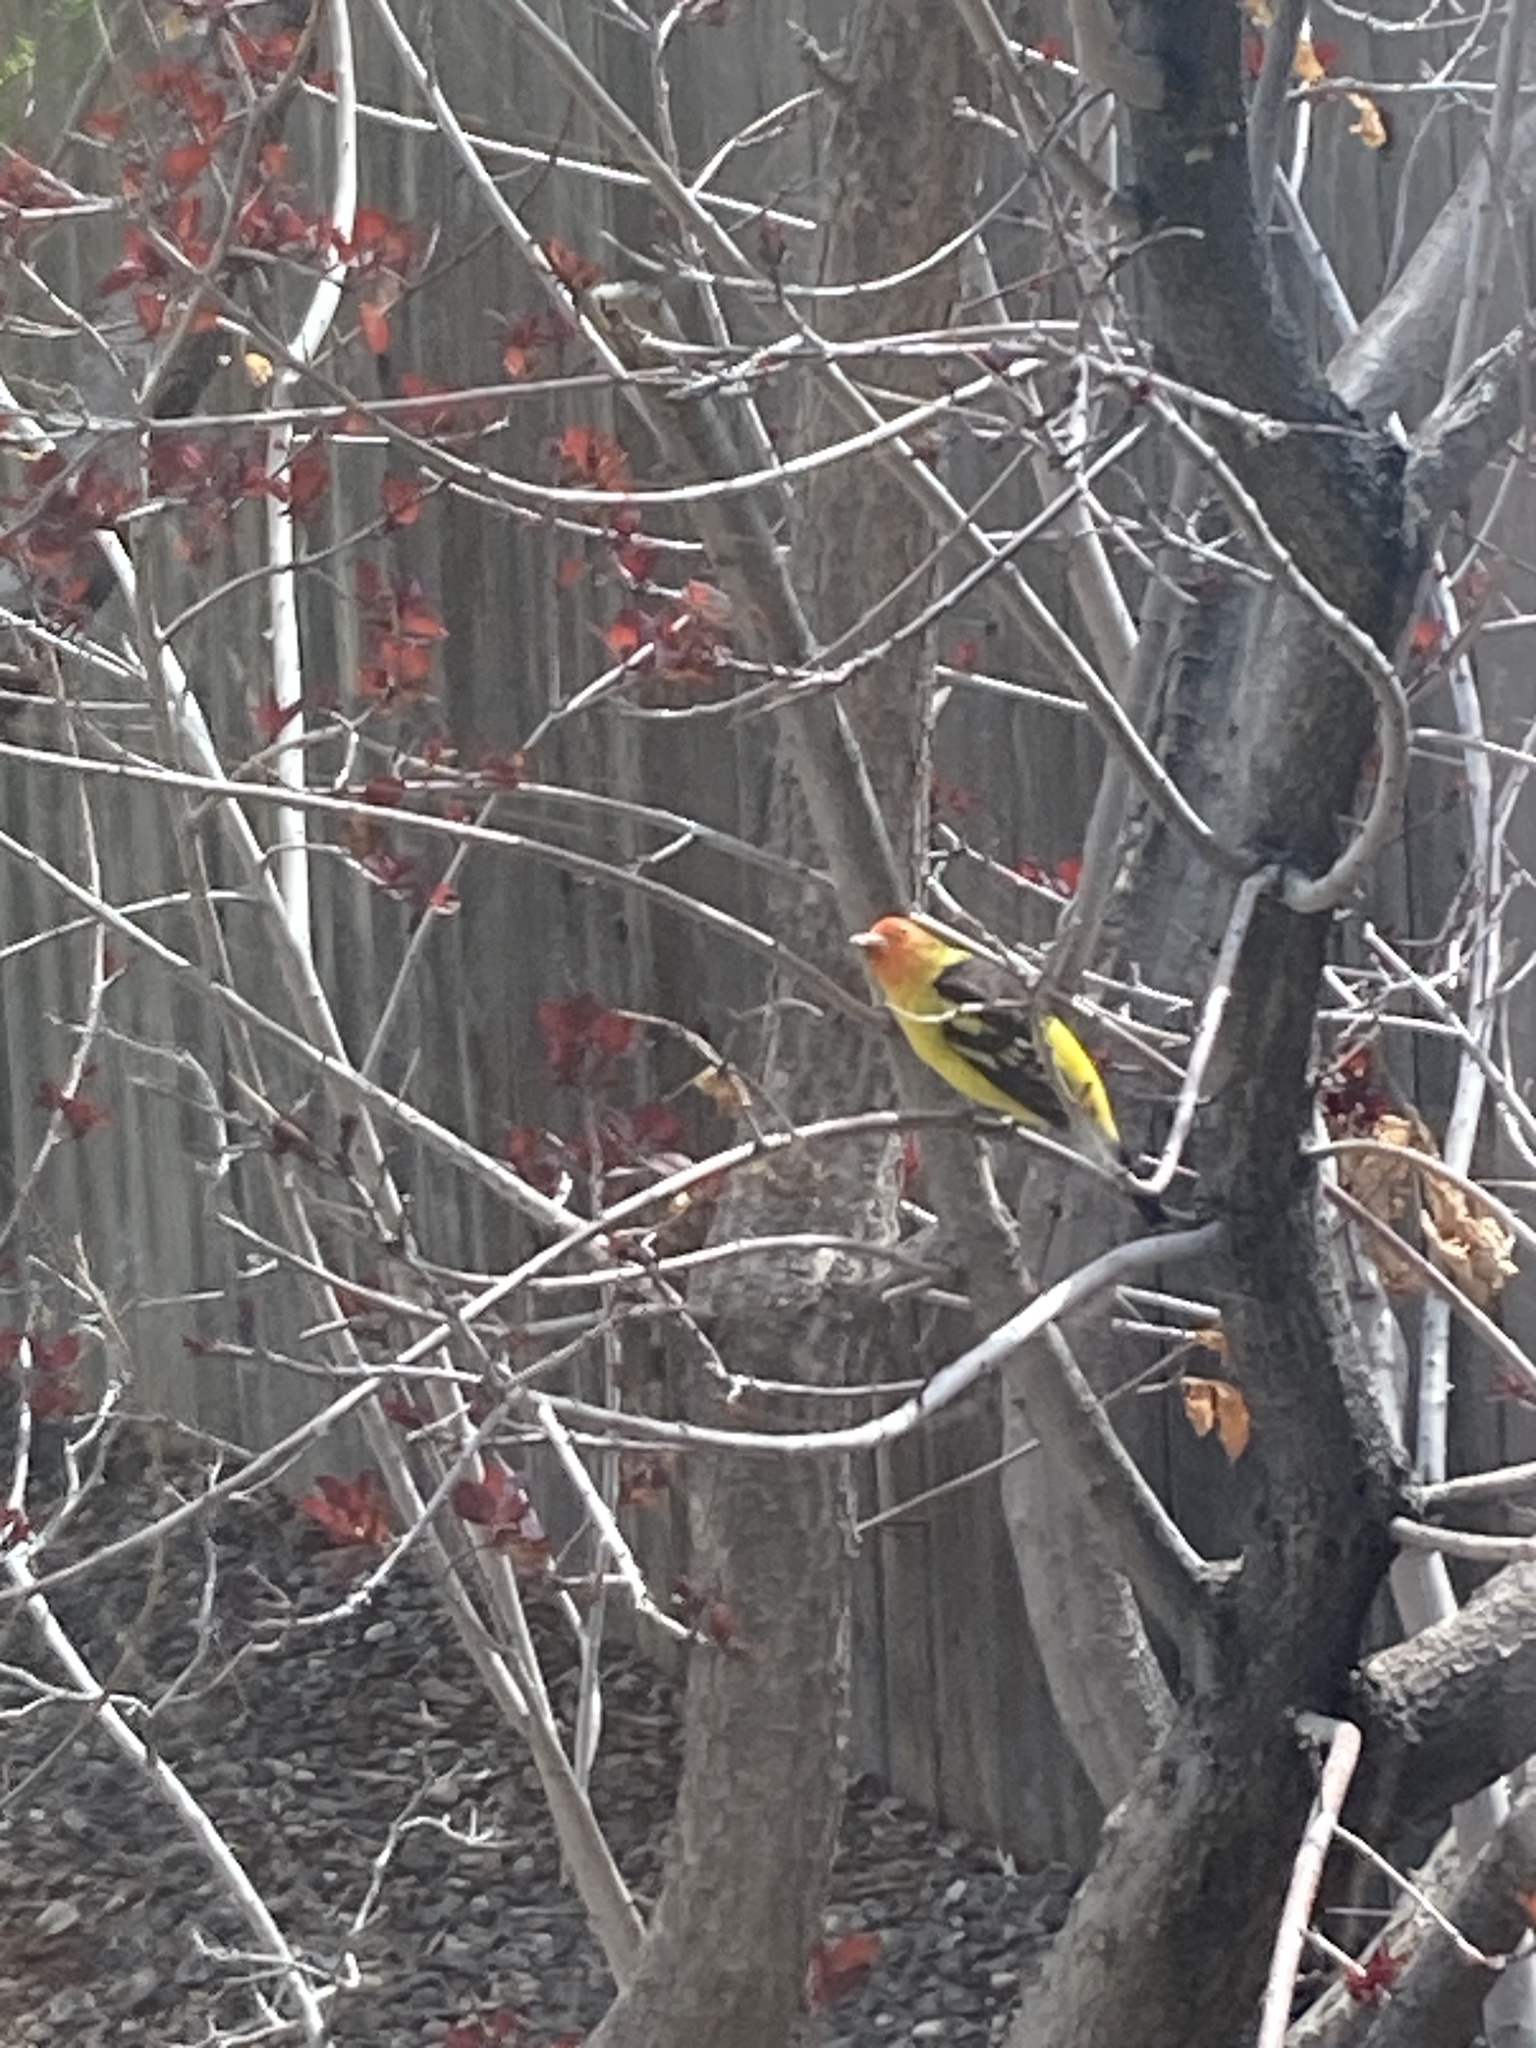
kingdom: Animalia
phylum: Chordata
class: Aves
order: Passeriformes
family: Cardinalidae
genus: Piranga
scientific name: Piranga ludoviciana
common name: Western tanager
